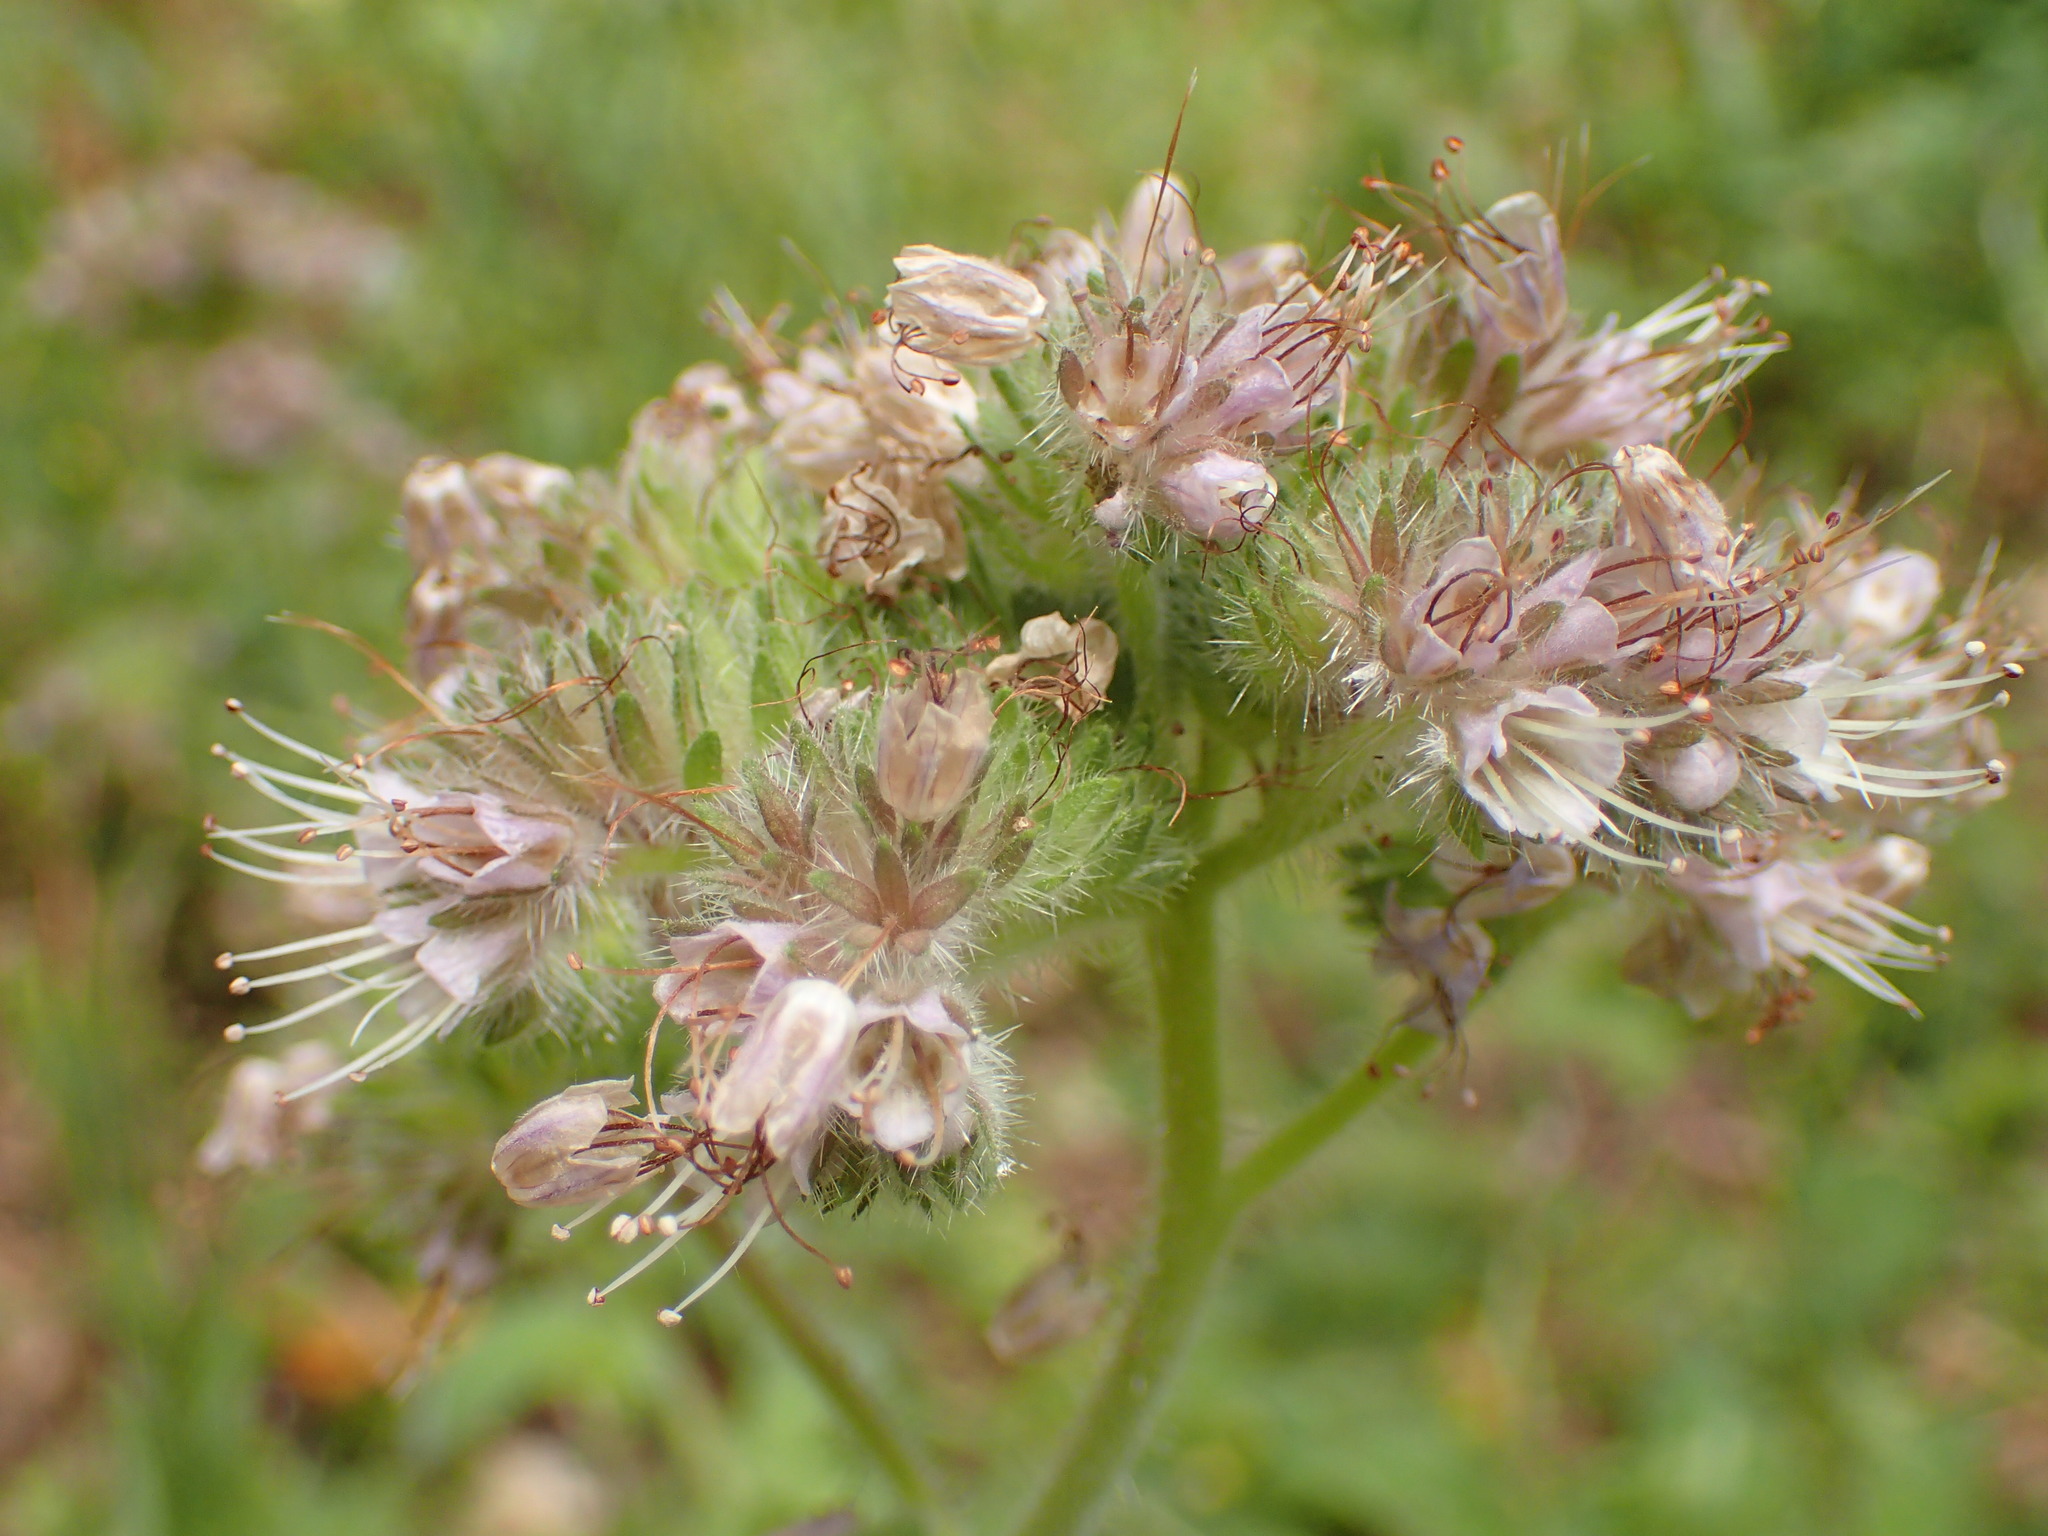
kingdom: Plantae
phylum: Tracheophyta
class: Magnoliopsida
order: Boraginales
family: Hydrophyllaceae
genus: Phacelia
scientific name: Phacelia californica
